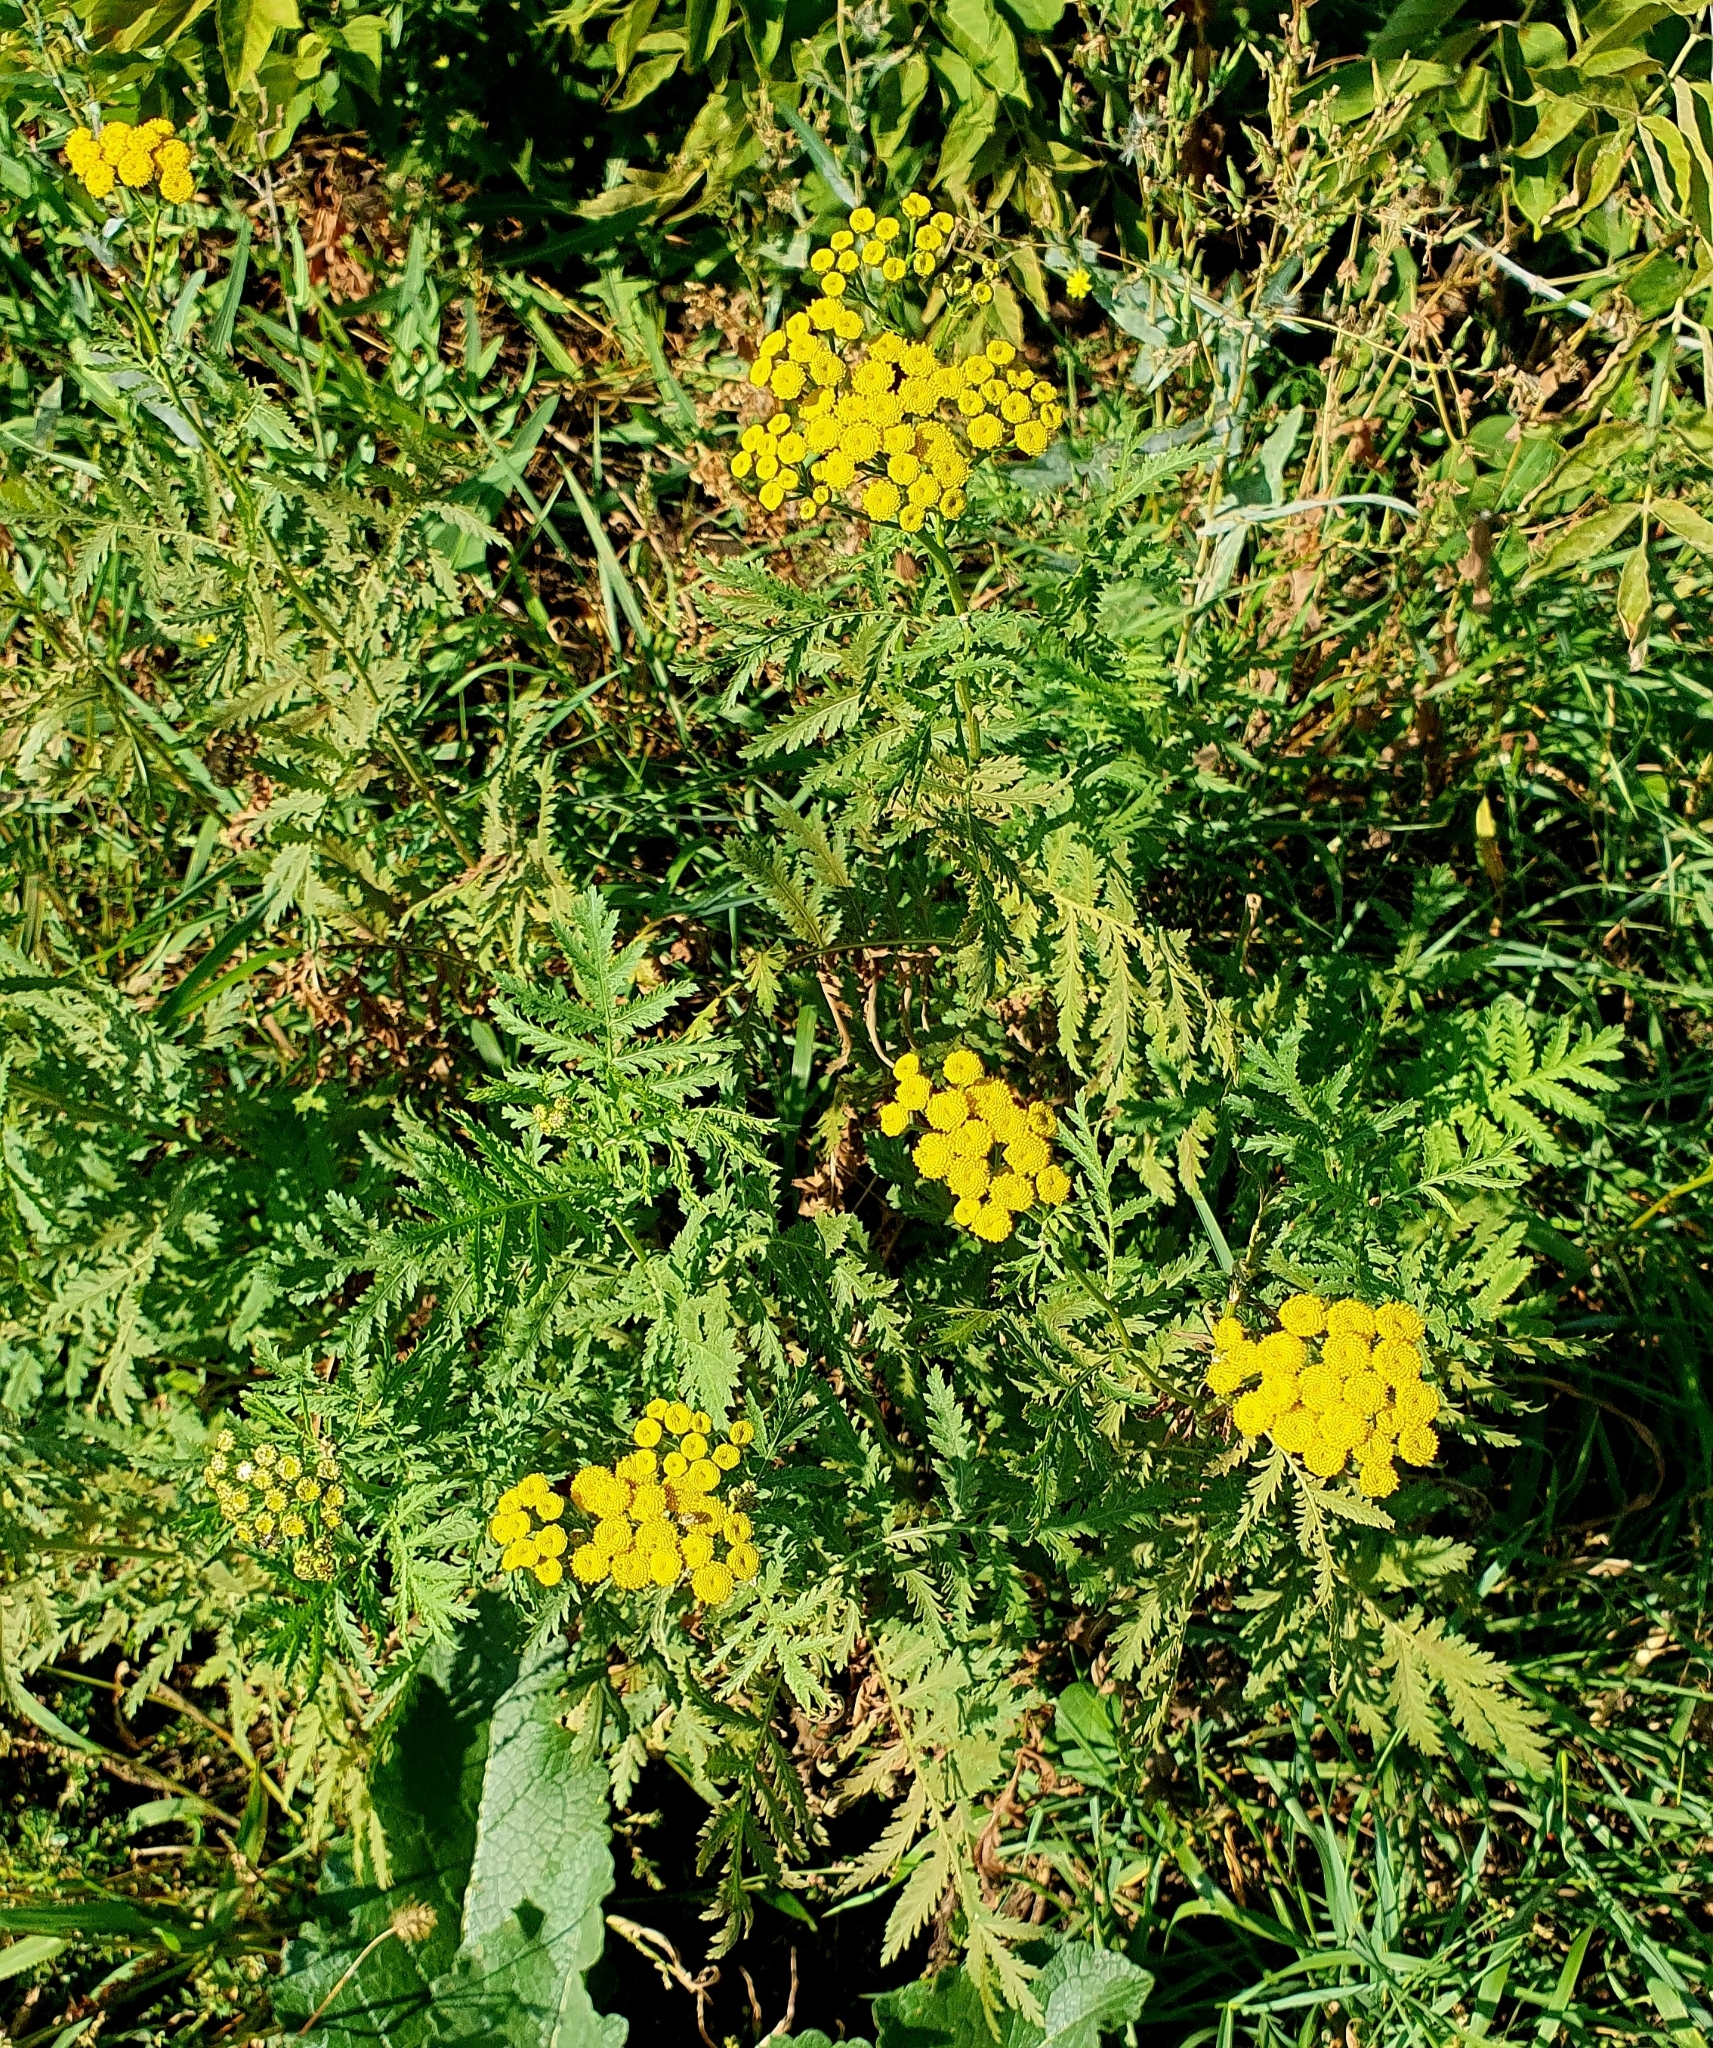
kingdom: Plantae
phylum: Tracheophyta
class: Magnoliopsida
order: Asterales
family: Asteraceae
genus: Tanacetum
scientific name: Tanacetum vulgare
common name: Common tansy
